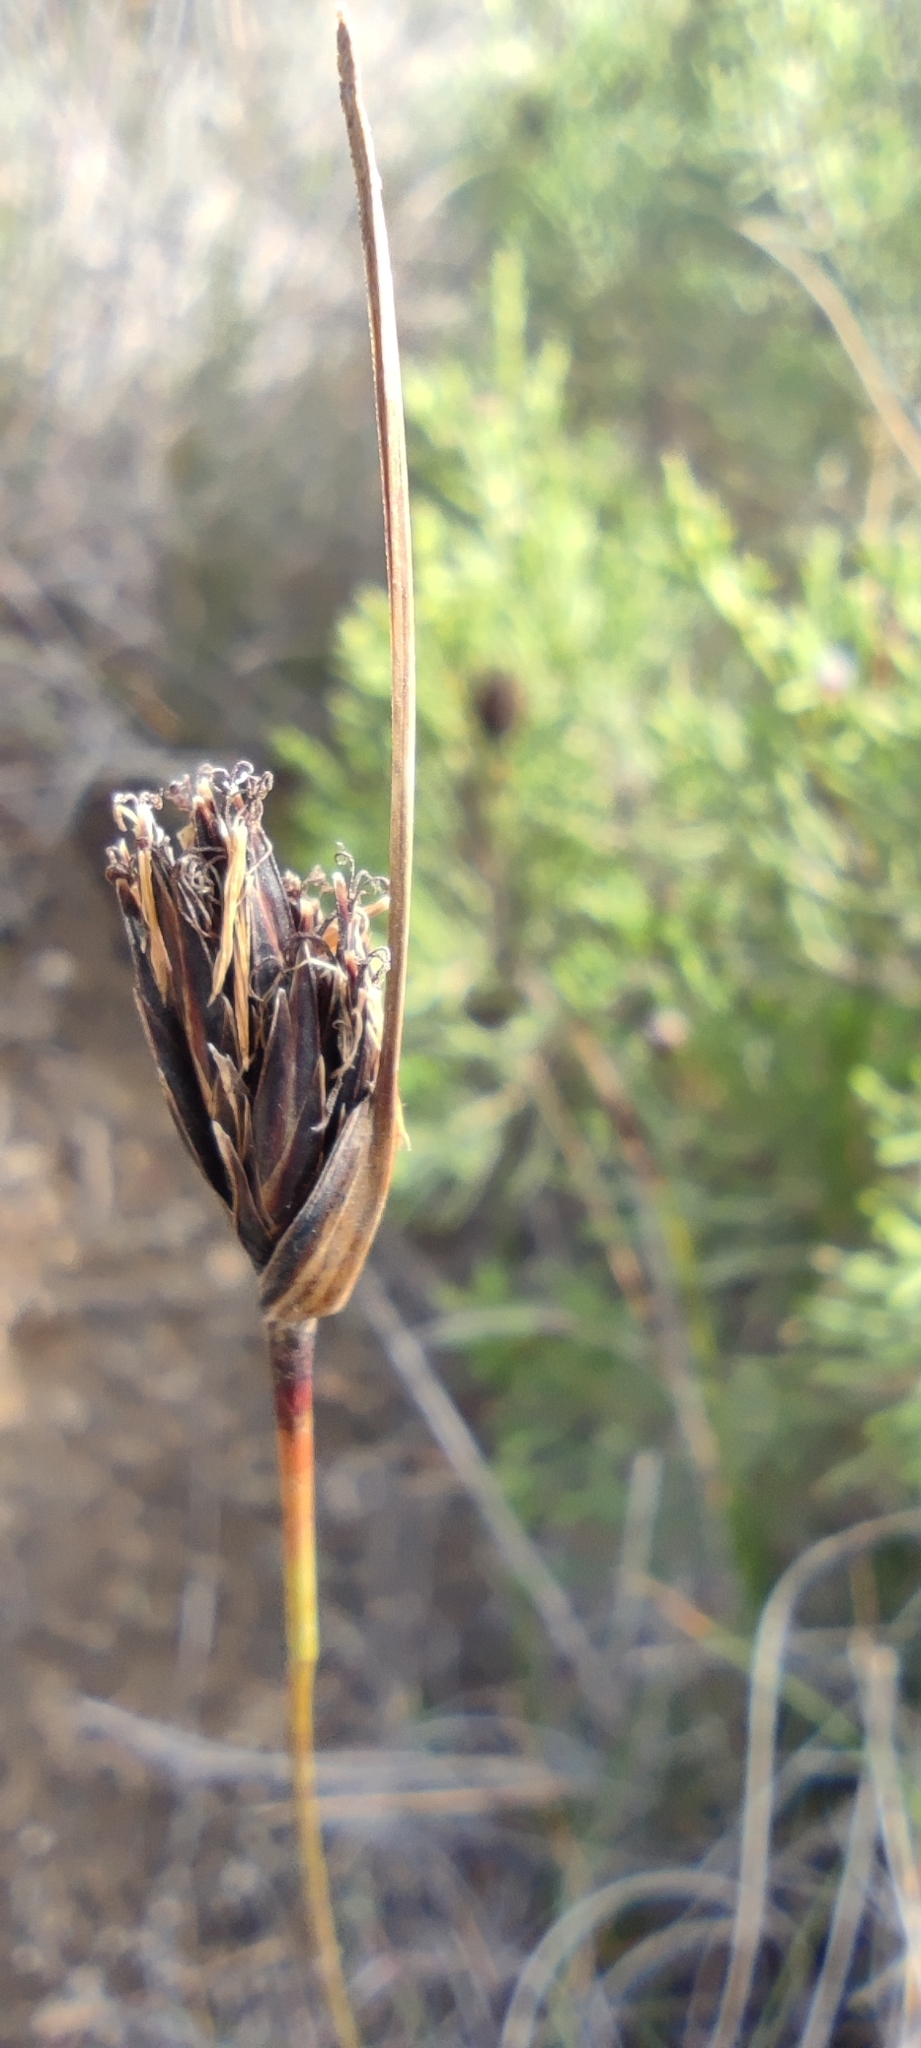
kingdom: Plantae
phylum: Tracheophyta
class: Liliopsida
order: Poales
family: Cyperaceae
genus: Schoenus
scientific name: Schoenus nigricans
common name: Black bog-rush
